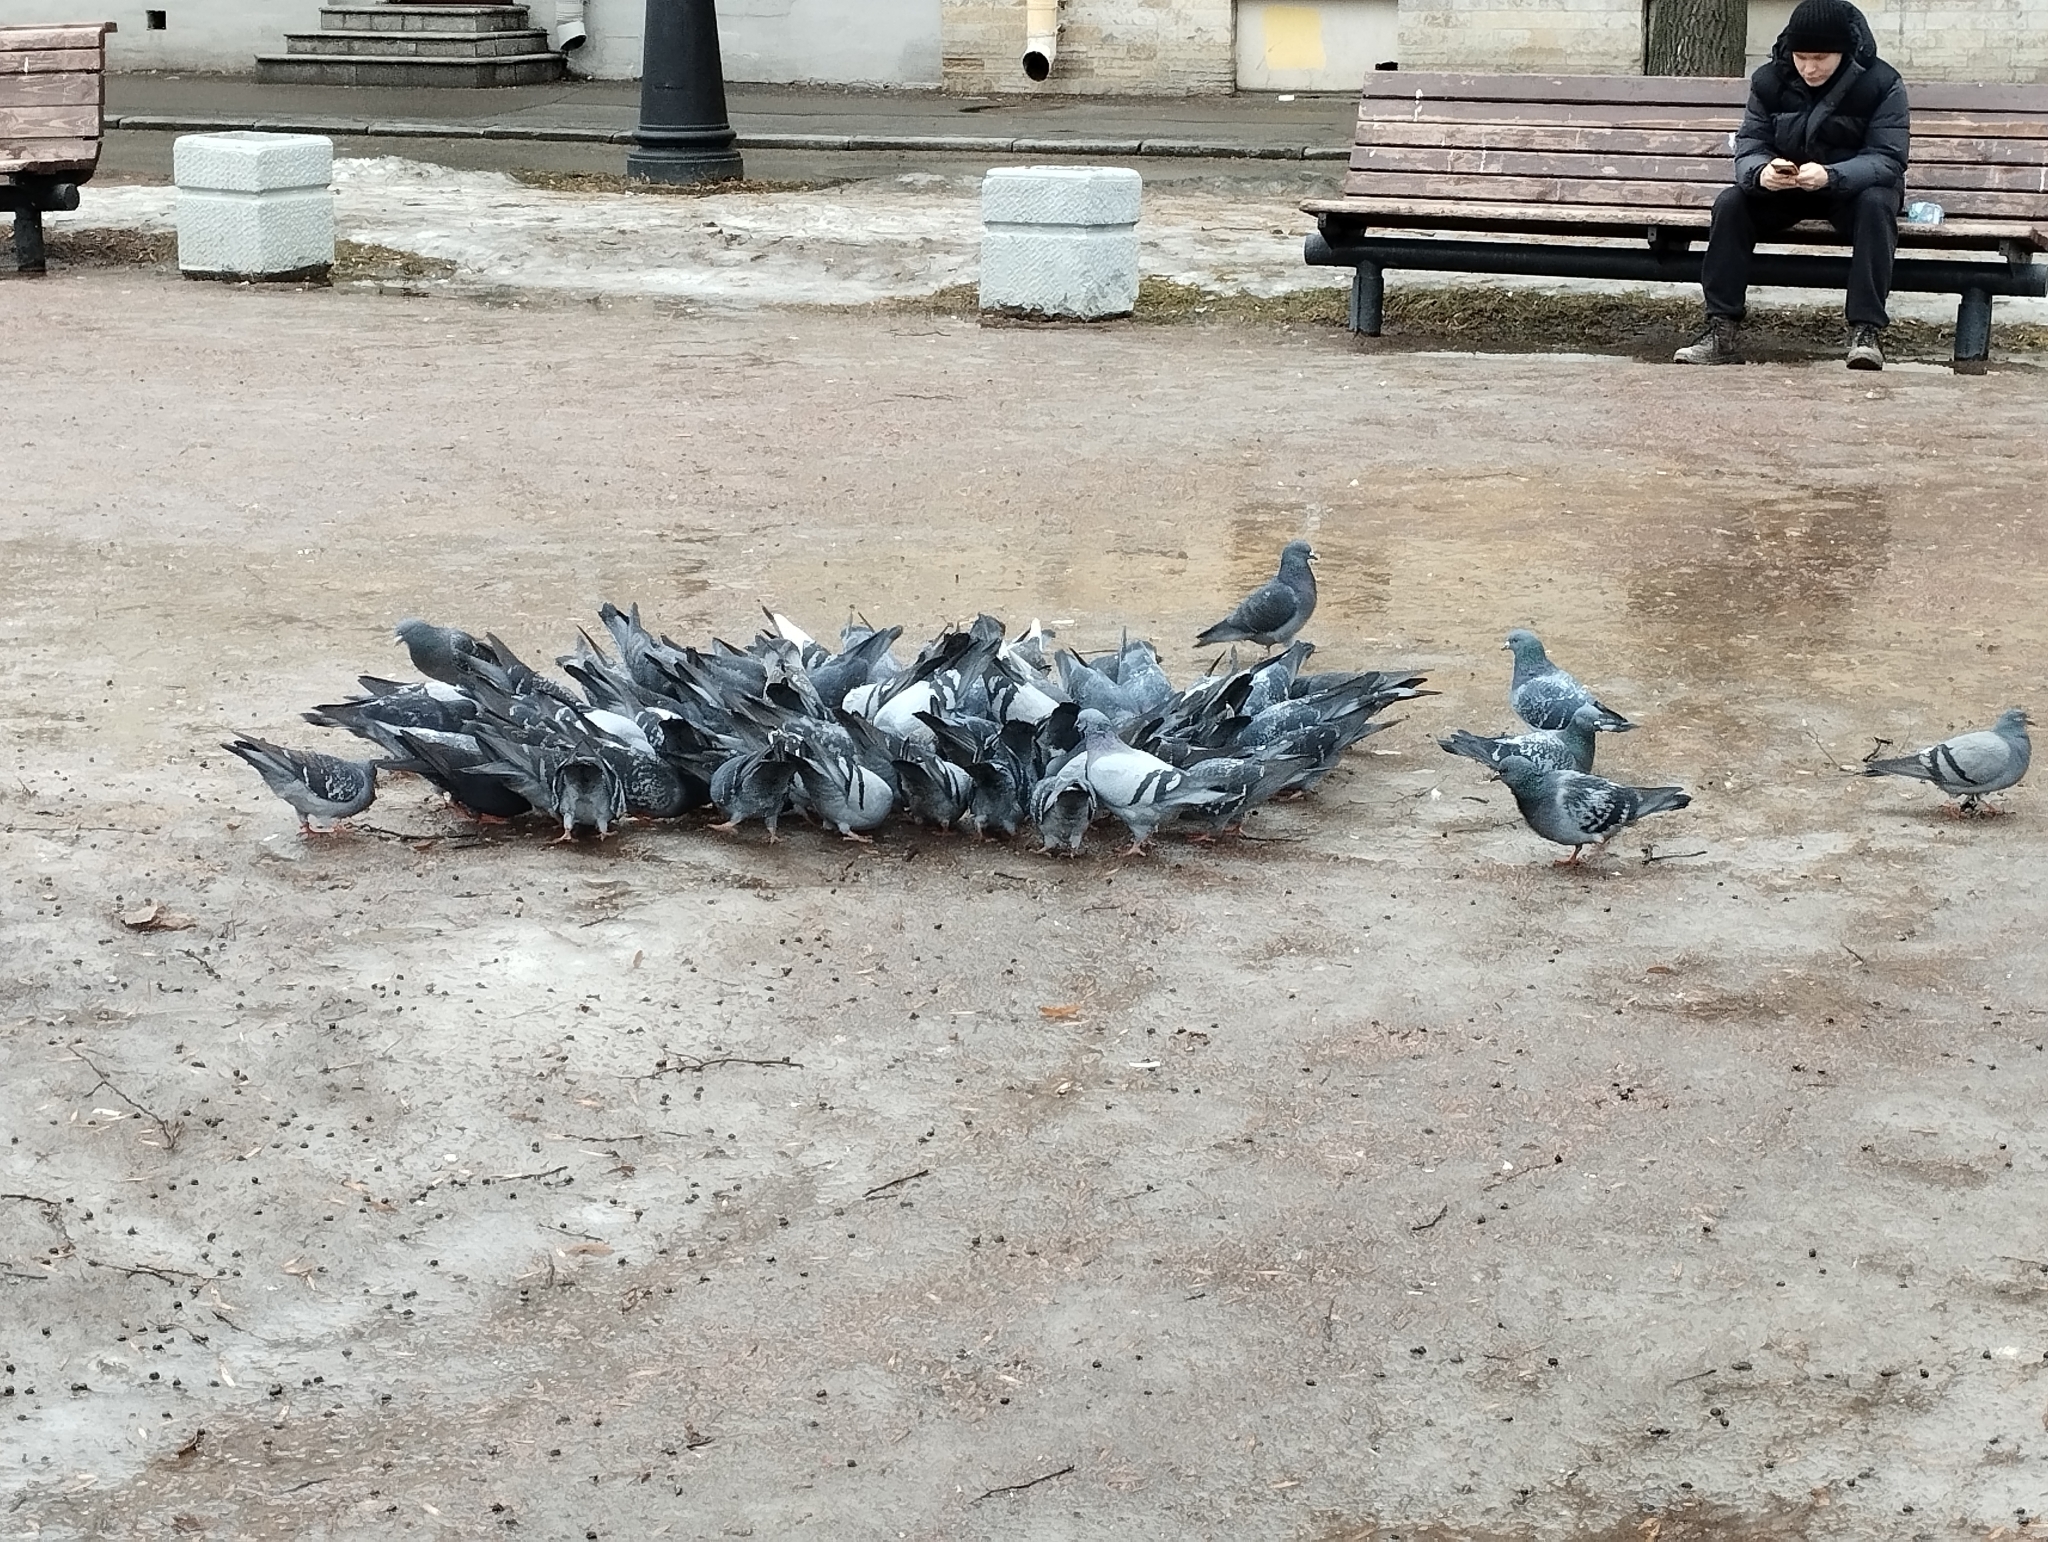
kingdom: Animalia
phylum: Chordata
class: Aves
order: Columbiformes
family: Columbidae
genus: Columba
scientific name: Columba livia
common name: Rock pigeon
